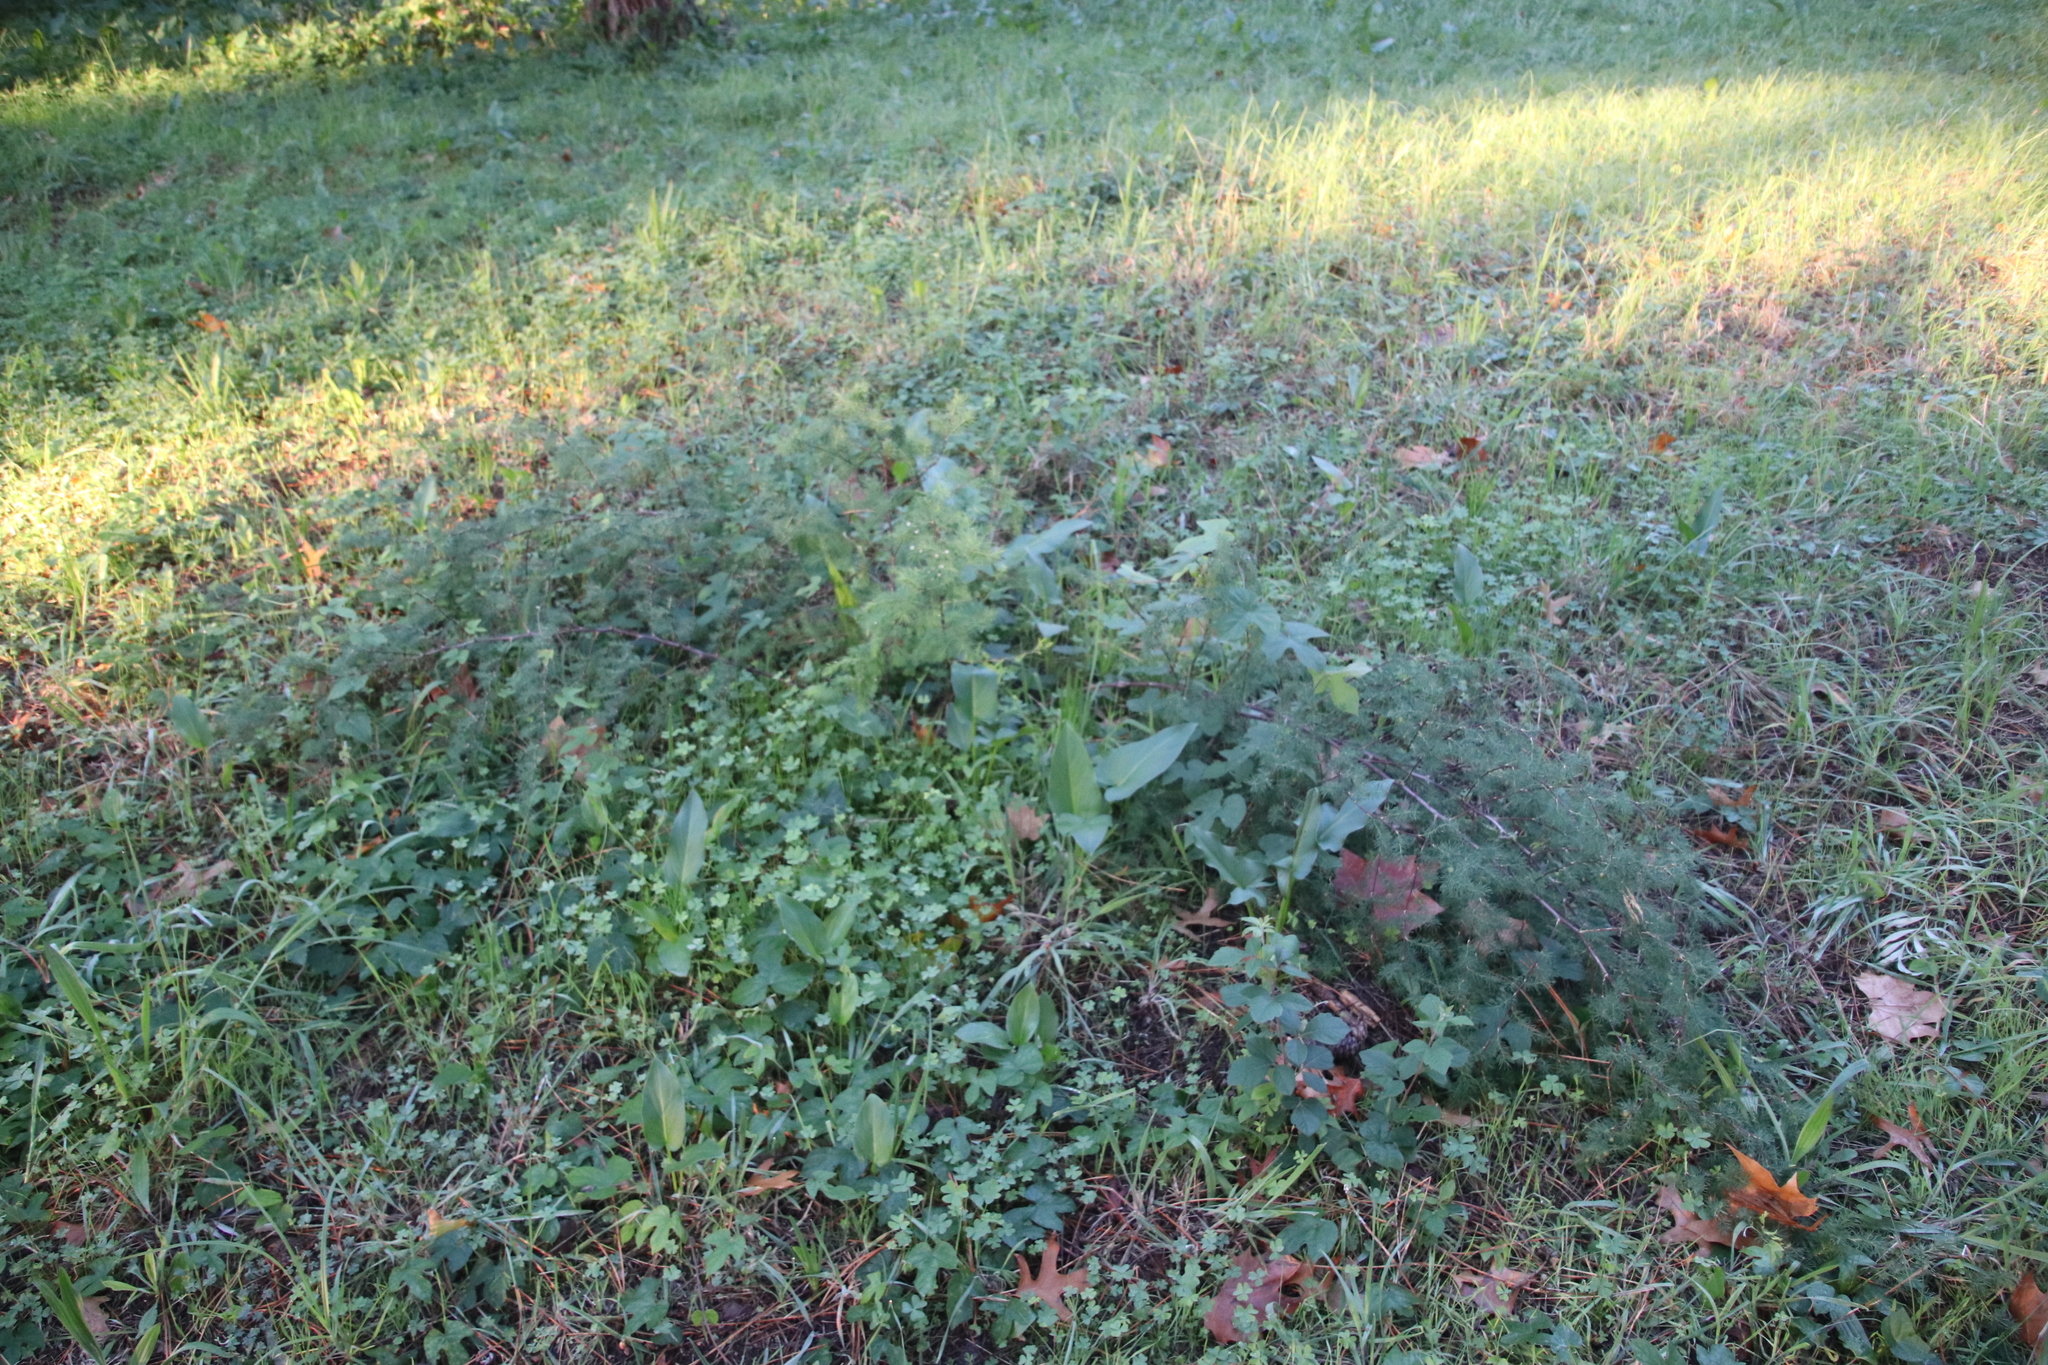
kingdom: Plantae
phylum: Tracheophyta
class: Liliopsida
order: Asparagales
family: Asparagaceae
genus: Asparagus
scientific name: Asparagus rubicundus
